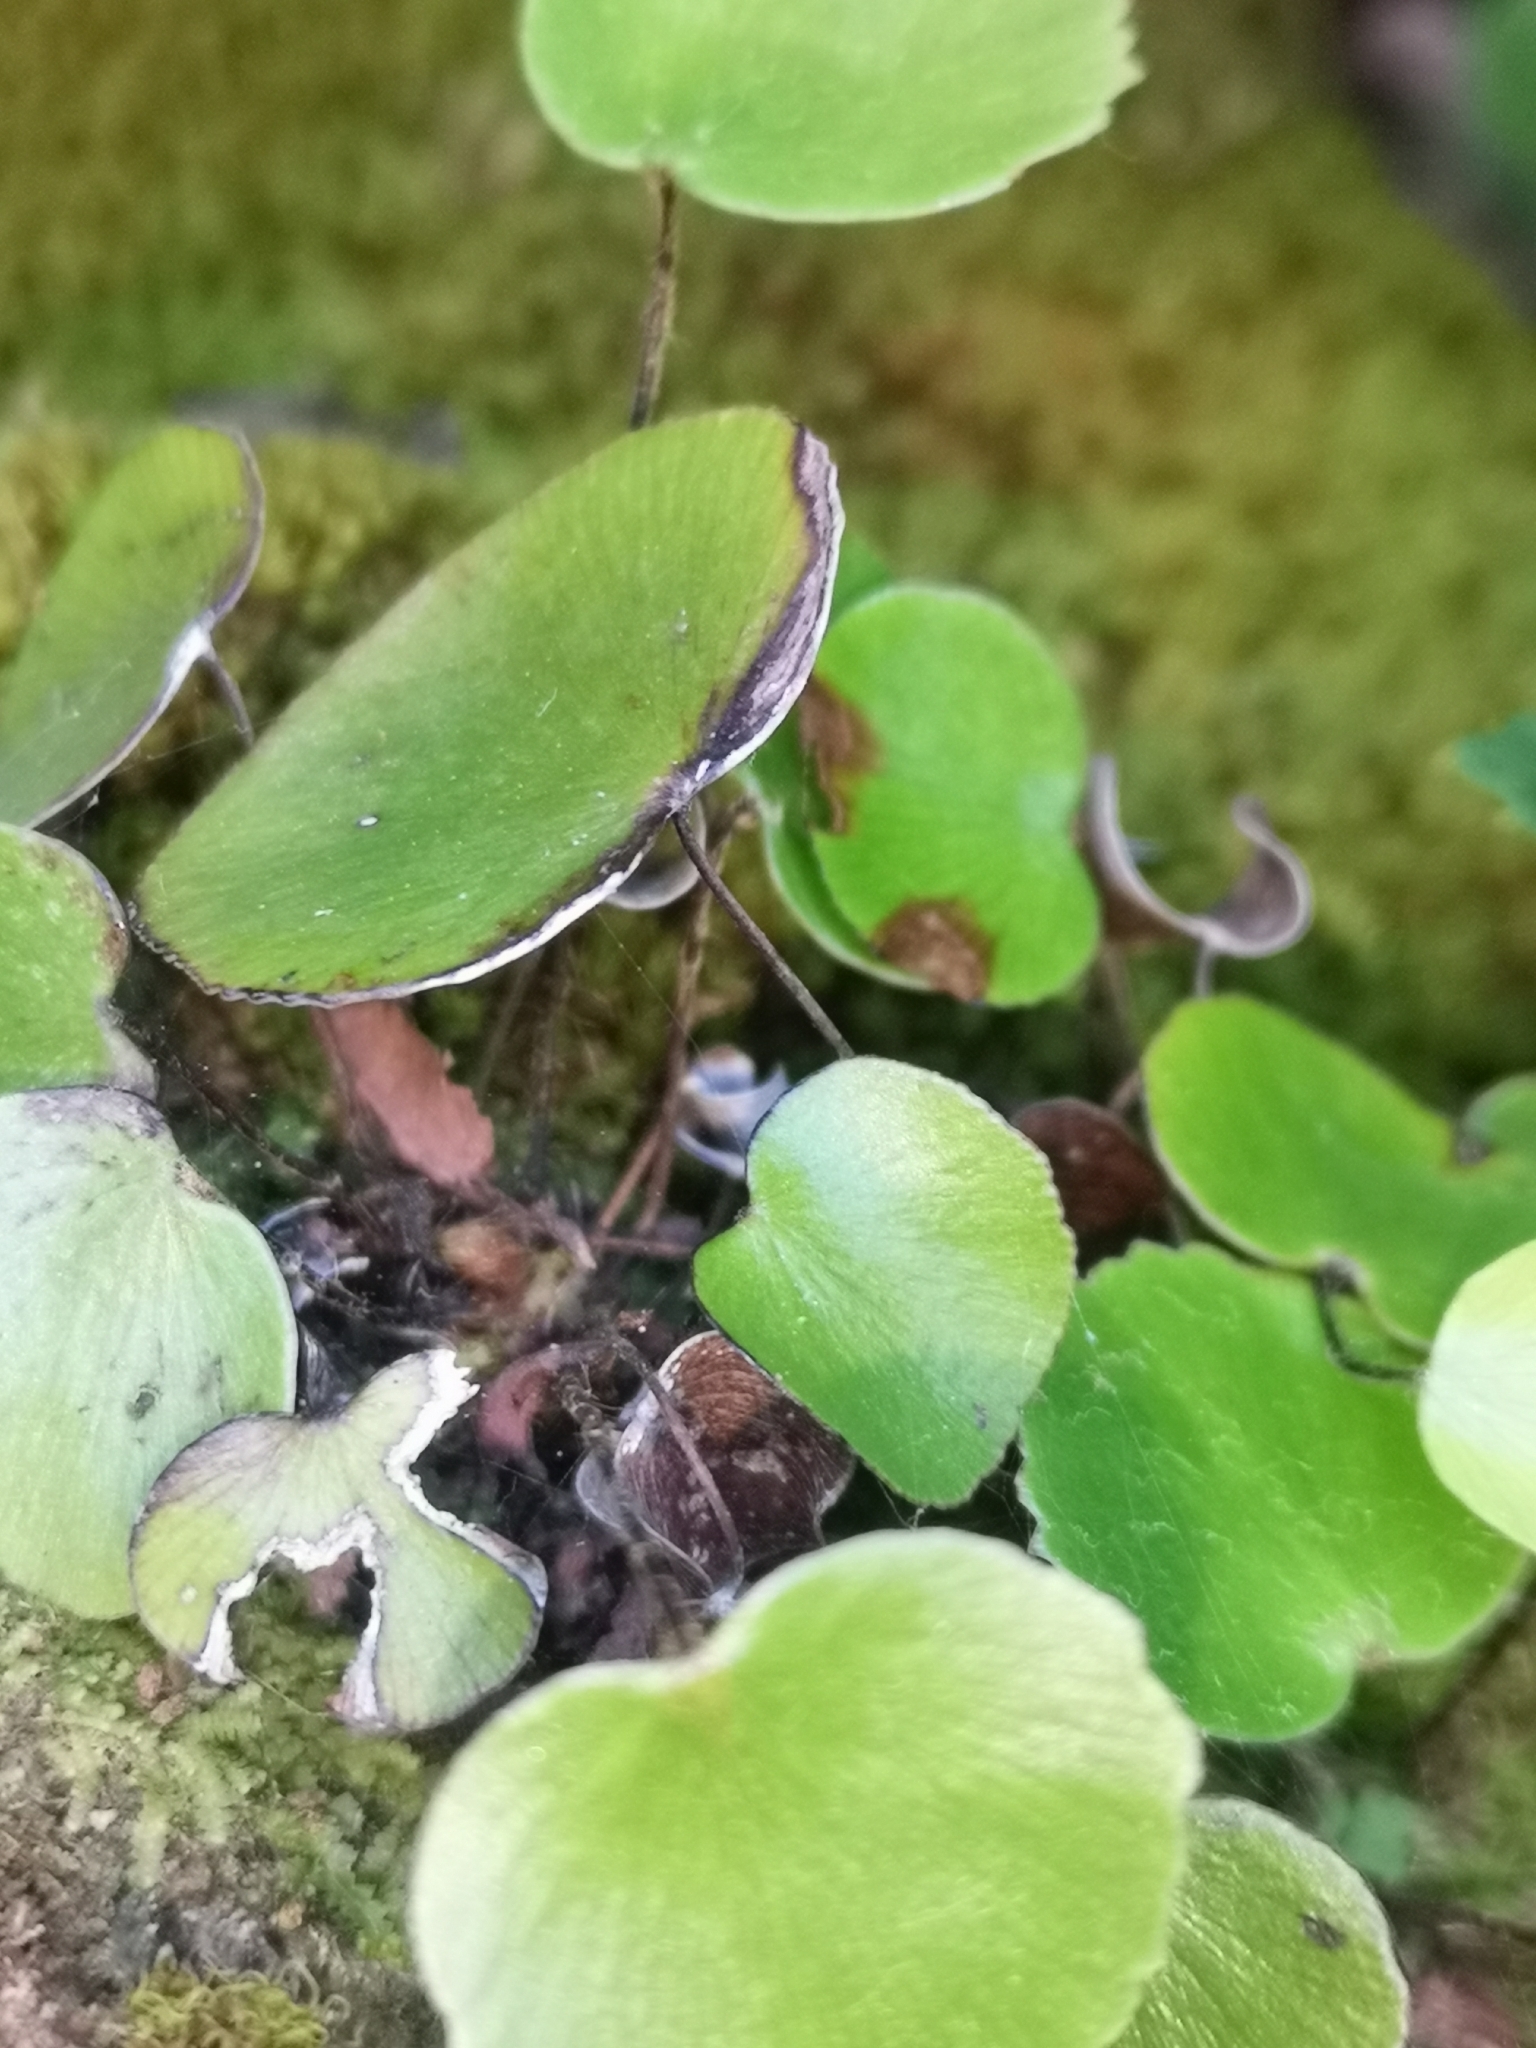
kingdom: Plantae
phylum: Tracheophyta
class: Polypodiopsida
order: Polypodiales
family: Pteridaceae
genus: Adiantum
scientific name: Adiantum reniforme
